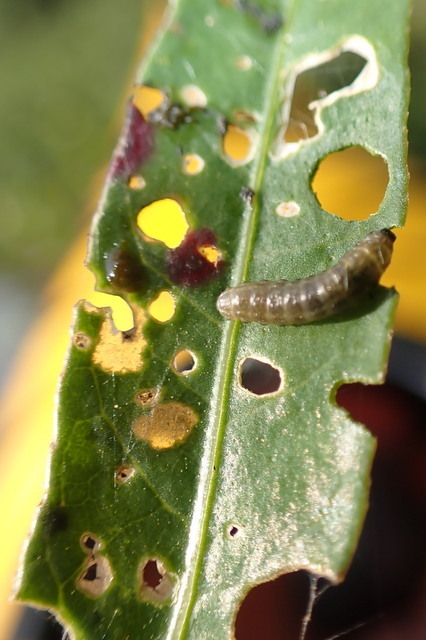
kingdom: Animalia
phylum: Arthropoda
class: Insecta
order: Coleoptera
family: Chrysomelidae
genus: Agasicles
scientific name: Agasicles hygrophila
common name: Alligatorweed flea beetle
